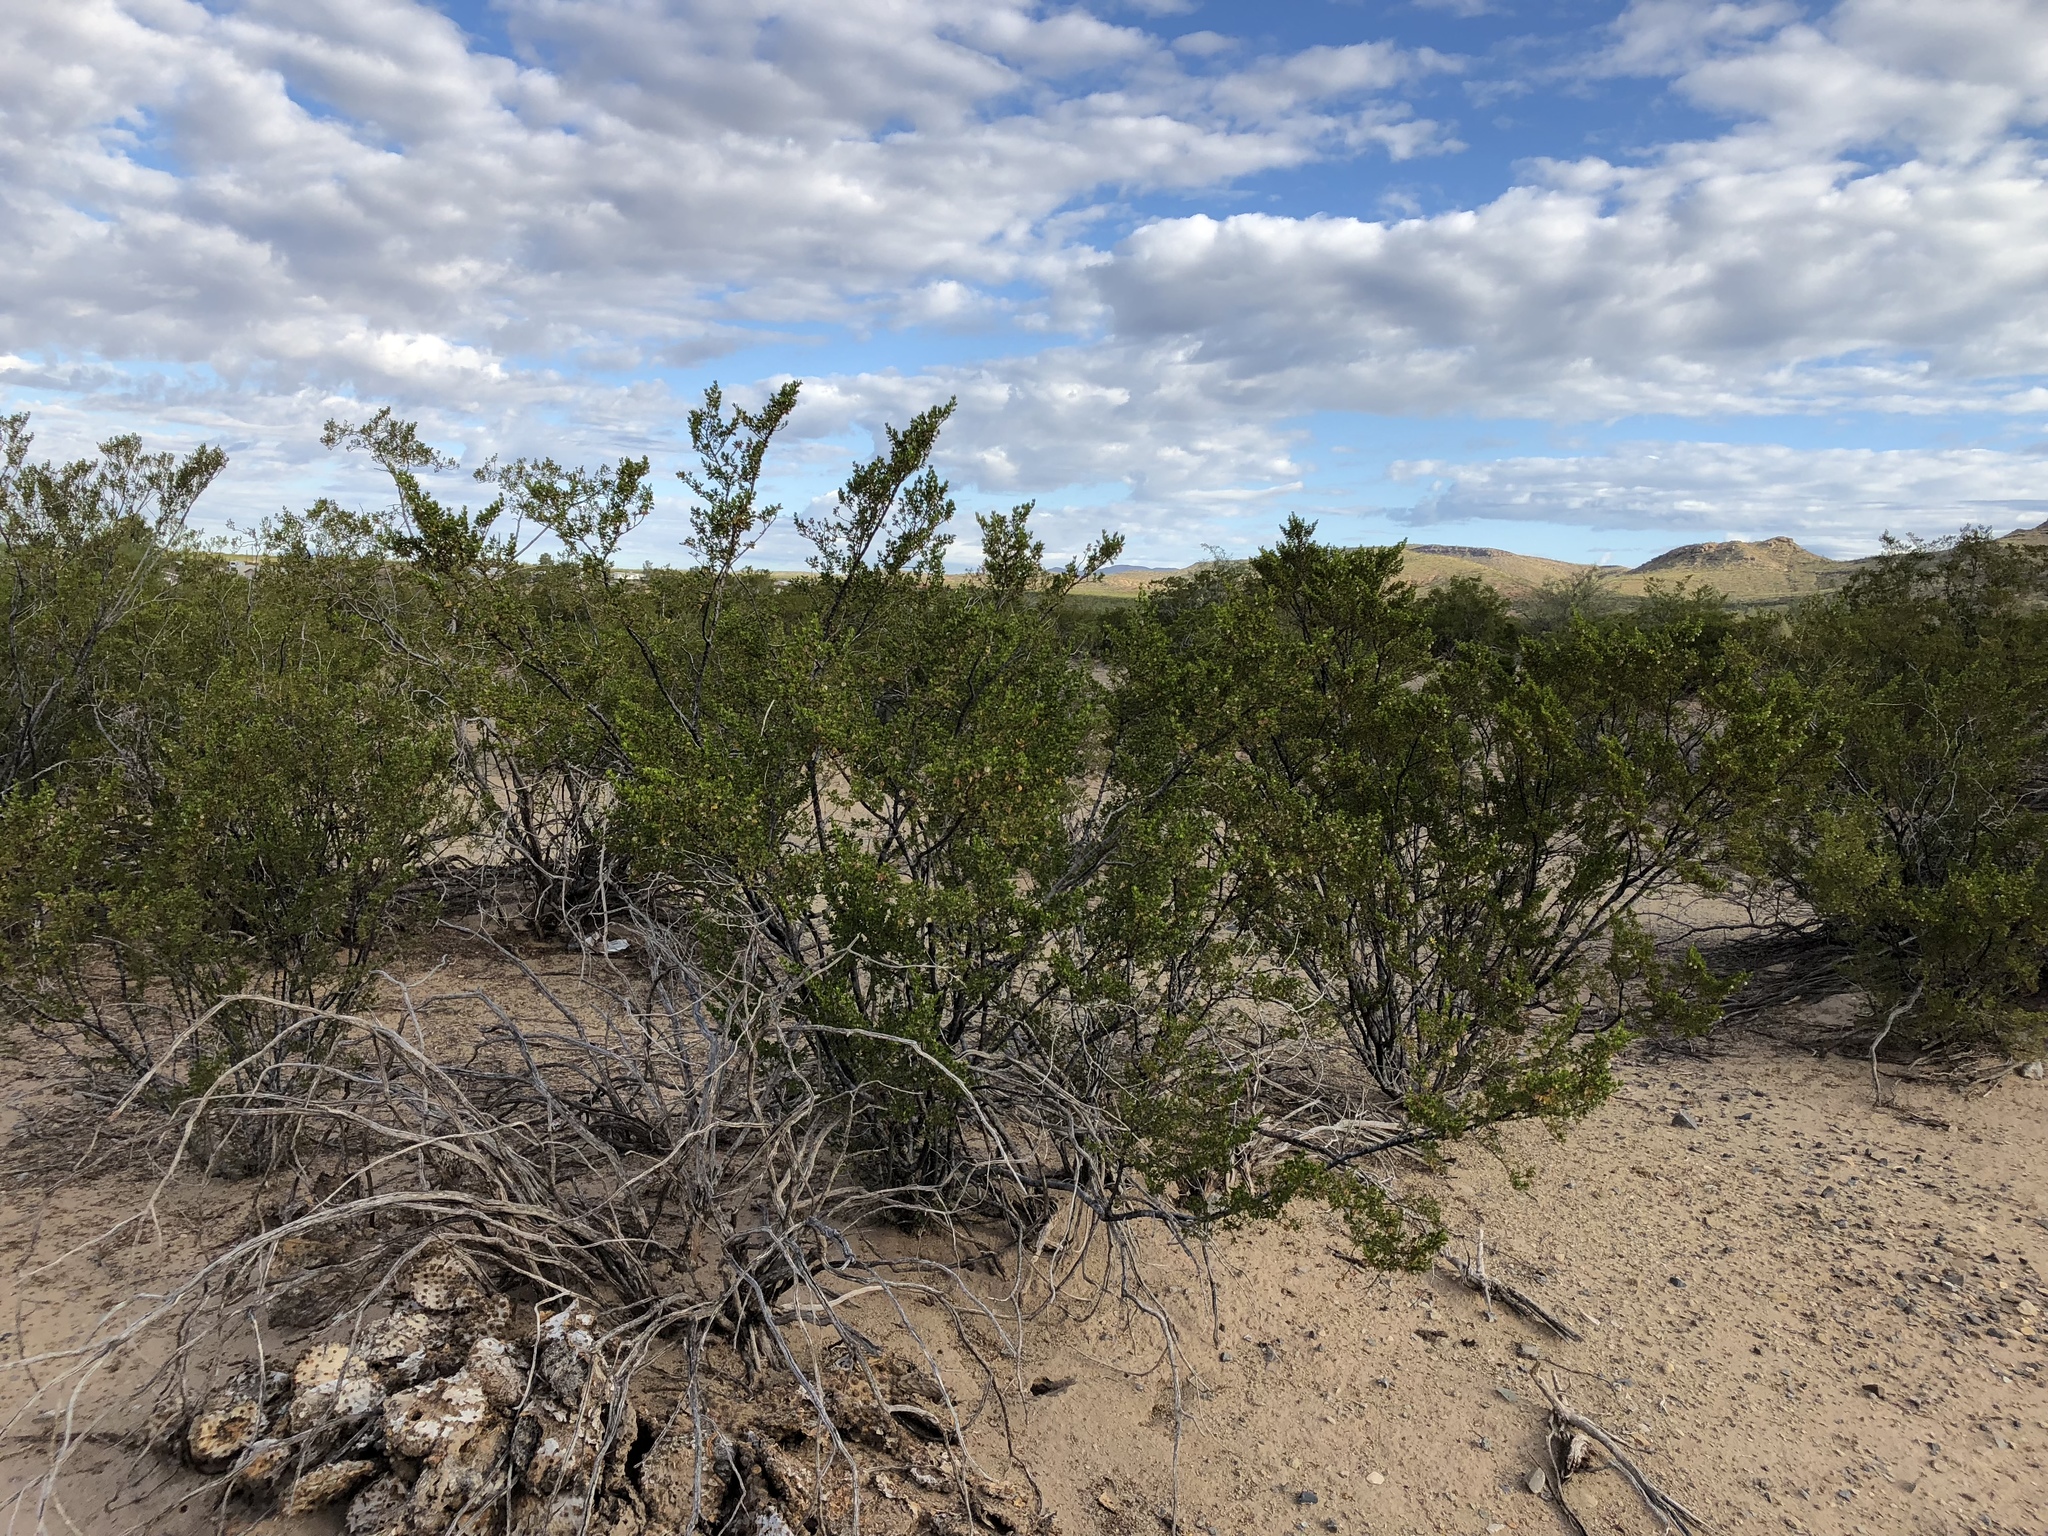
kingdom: Plantae
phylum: Tracheophyta
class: Magnoliopsida
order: Zygophyllales
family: Zygophyllaceae
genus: Larrea
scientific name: Larrea tridentata
